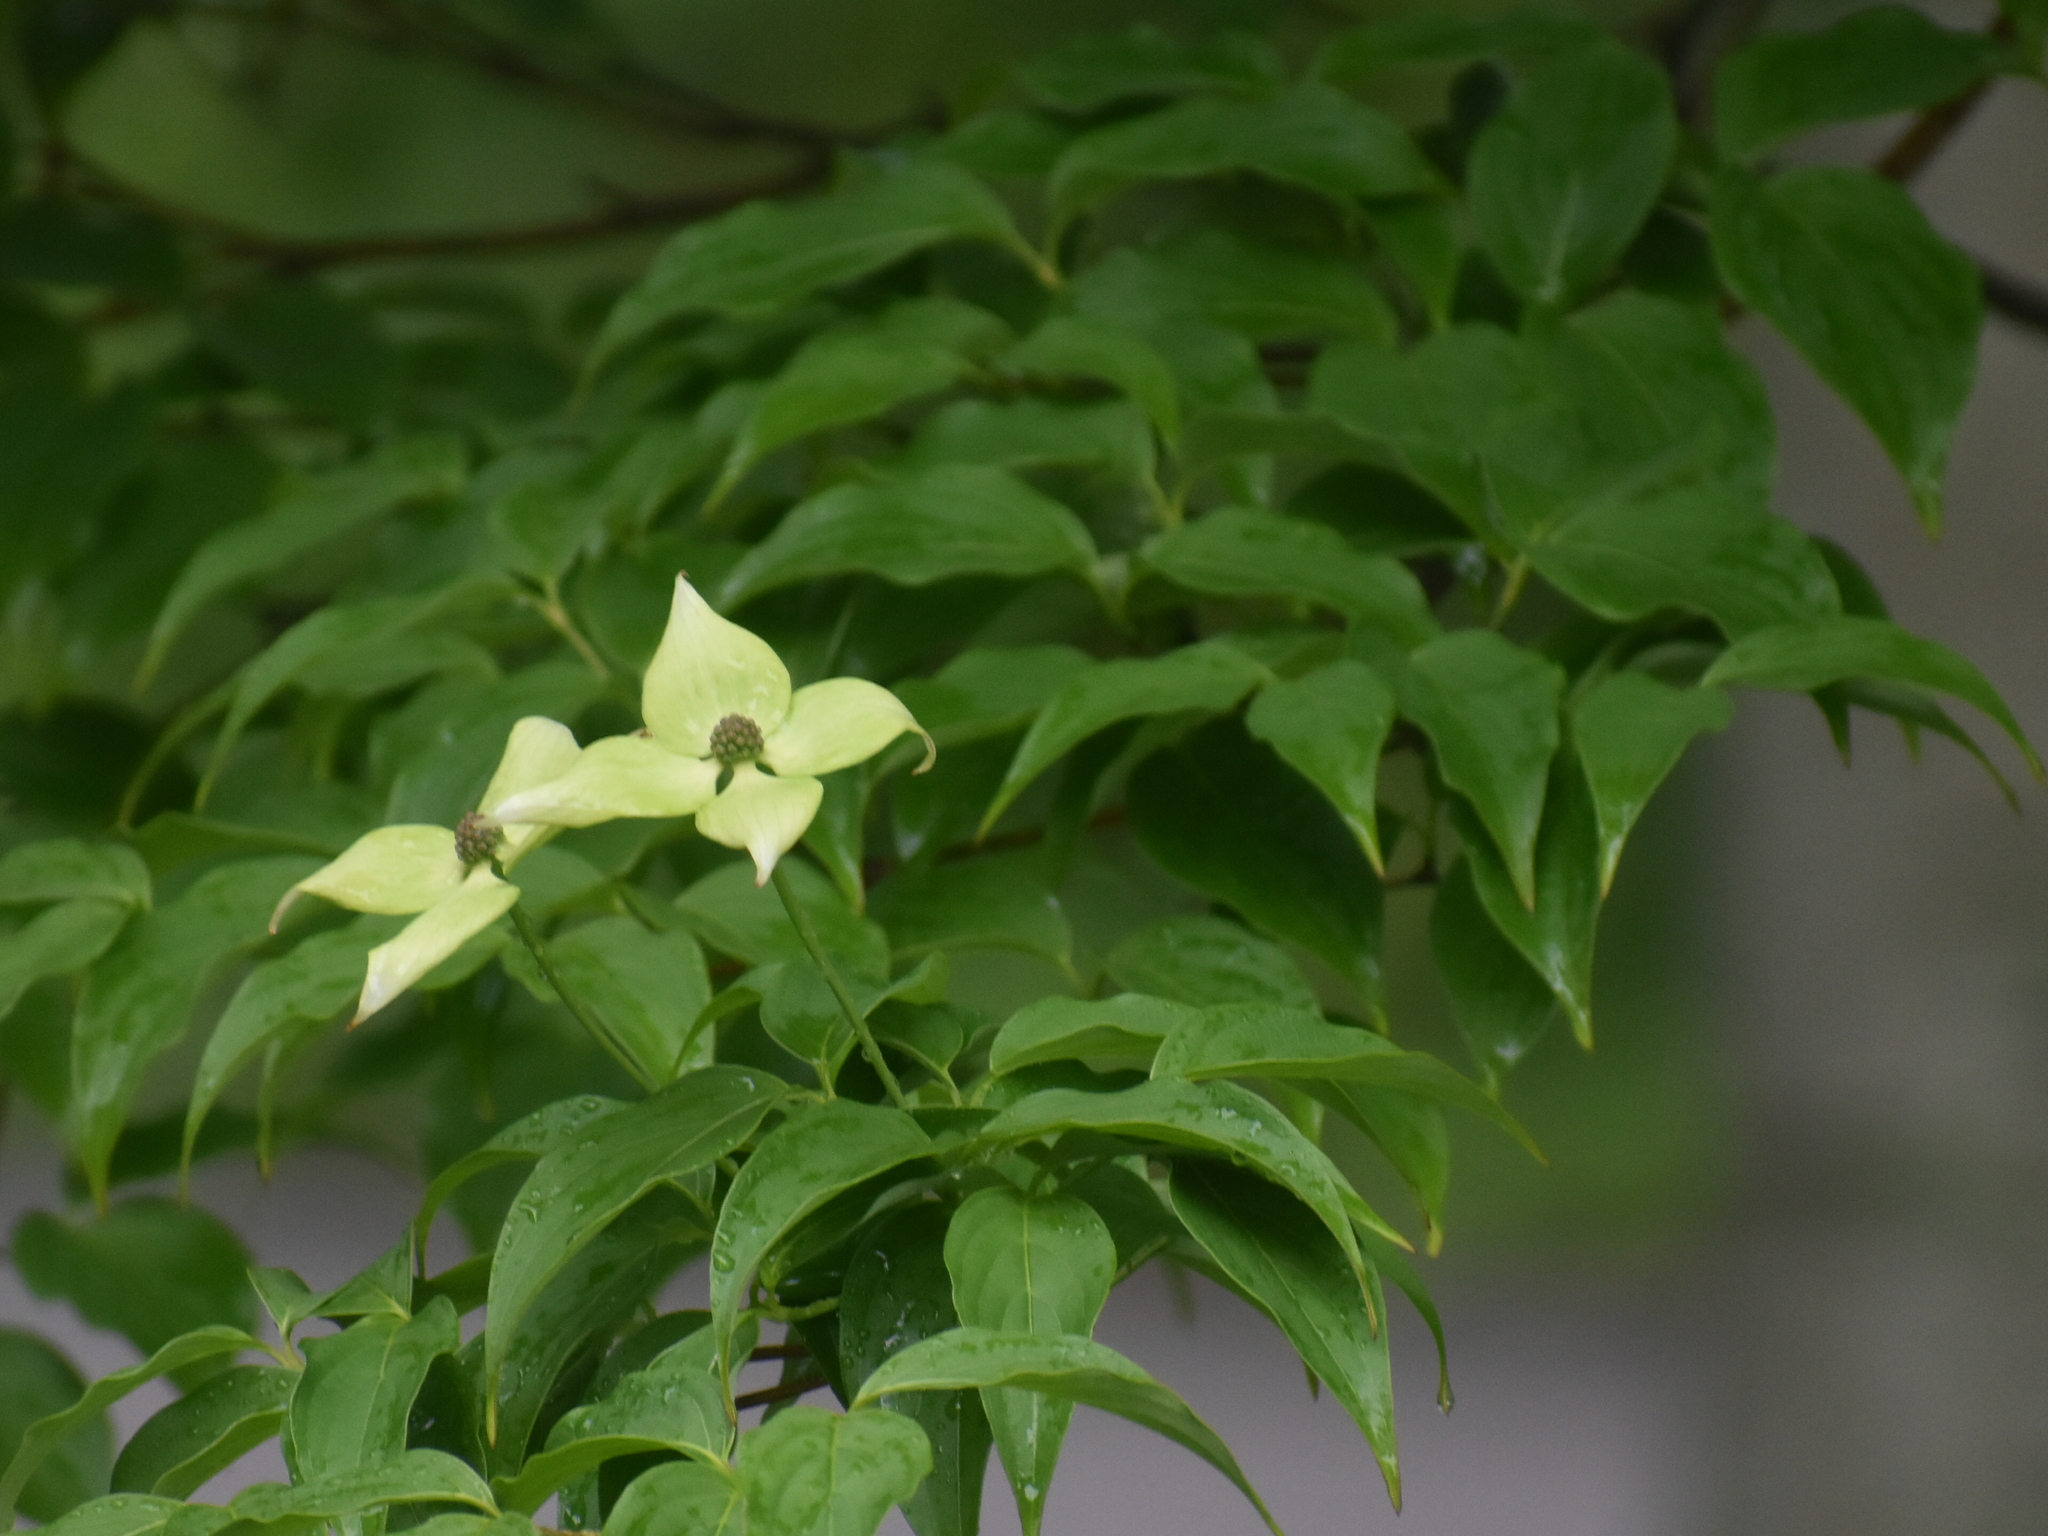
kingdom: Plantae
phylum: Tracheophyta
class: Magnoliopsida
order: Cornales
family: Cornaceae
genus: Cornus
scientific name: Cornus kousa
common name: Japanese dogwood
